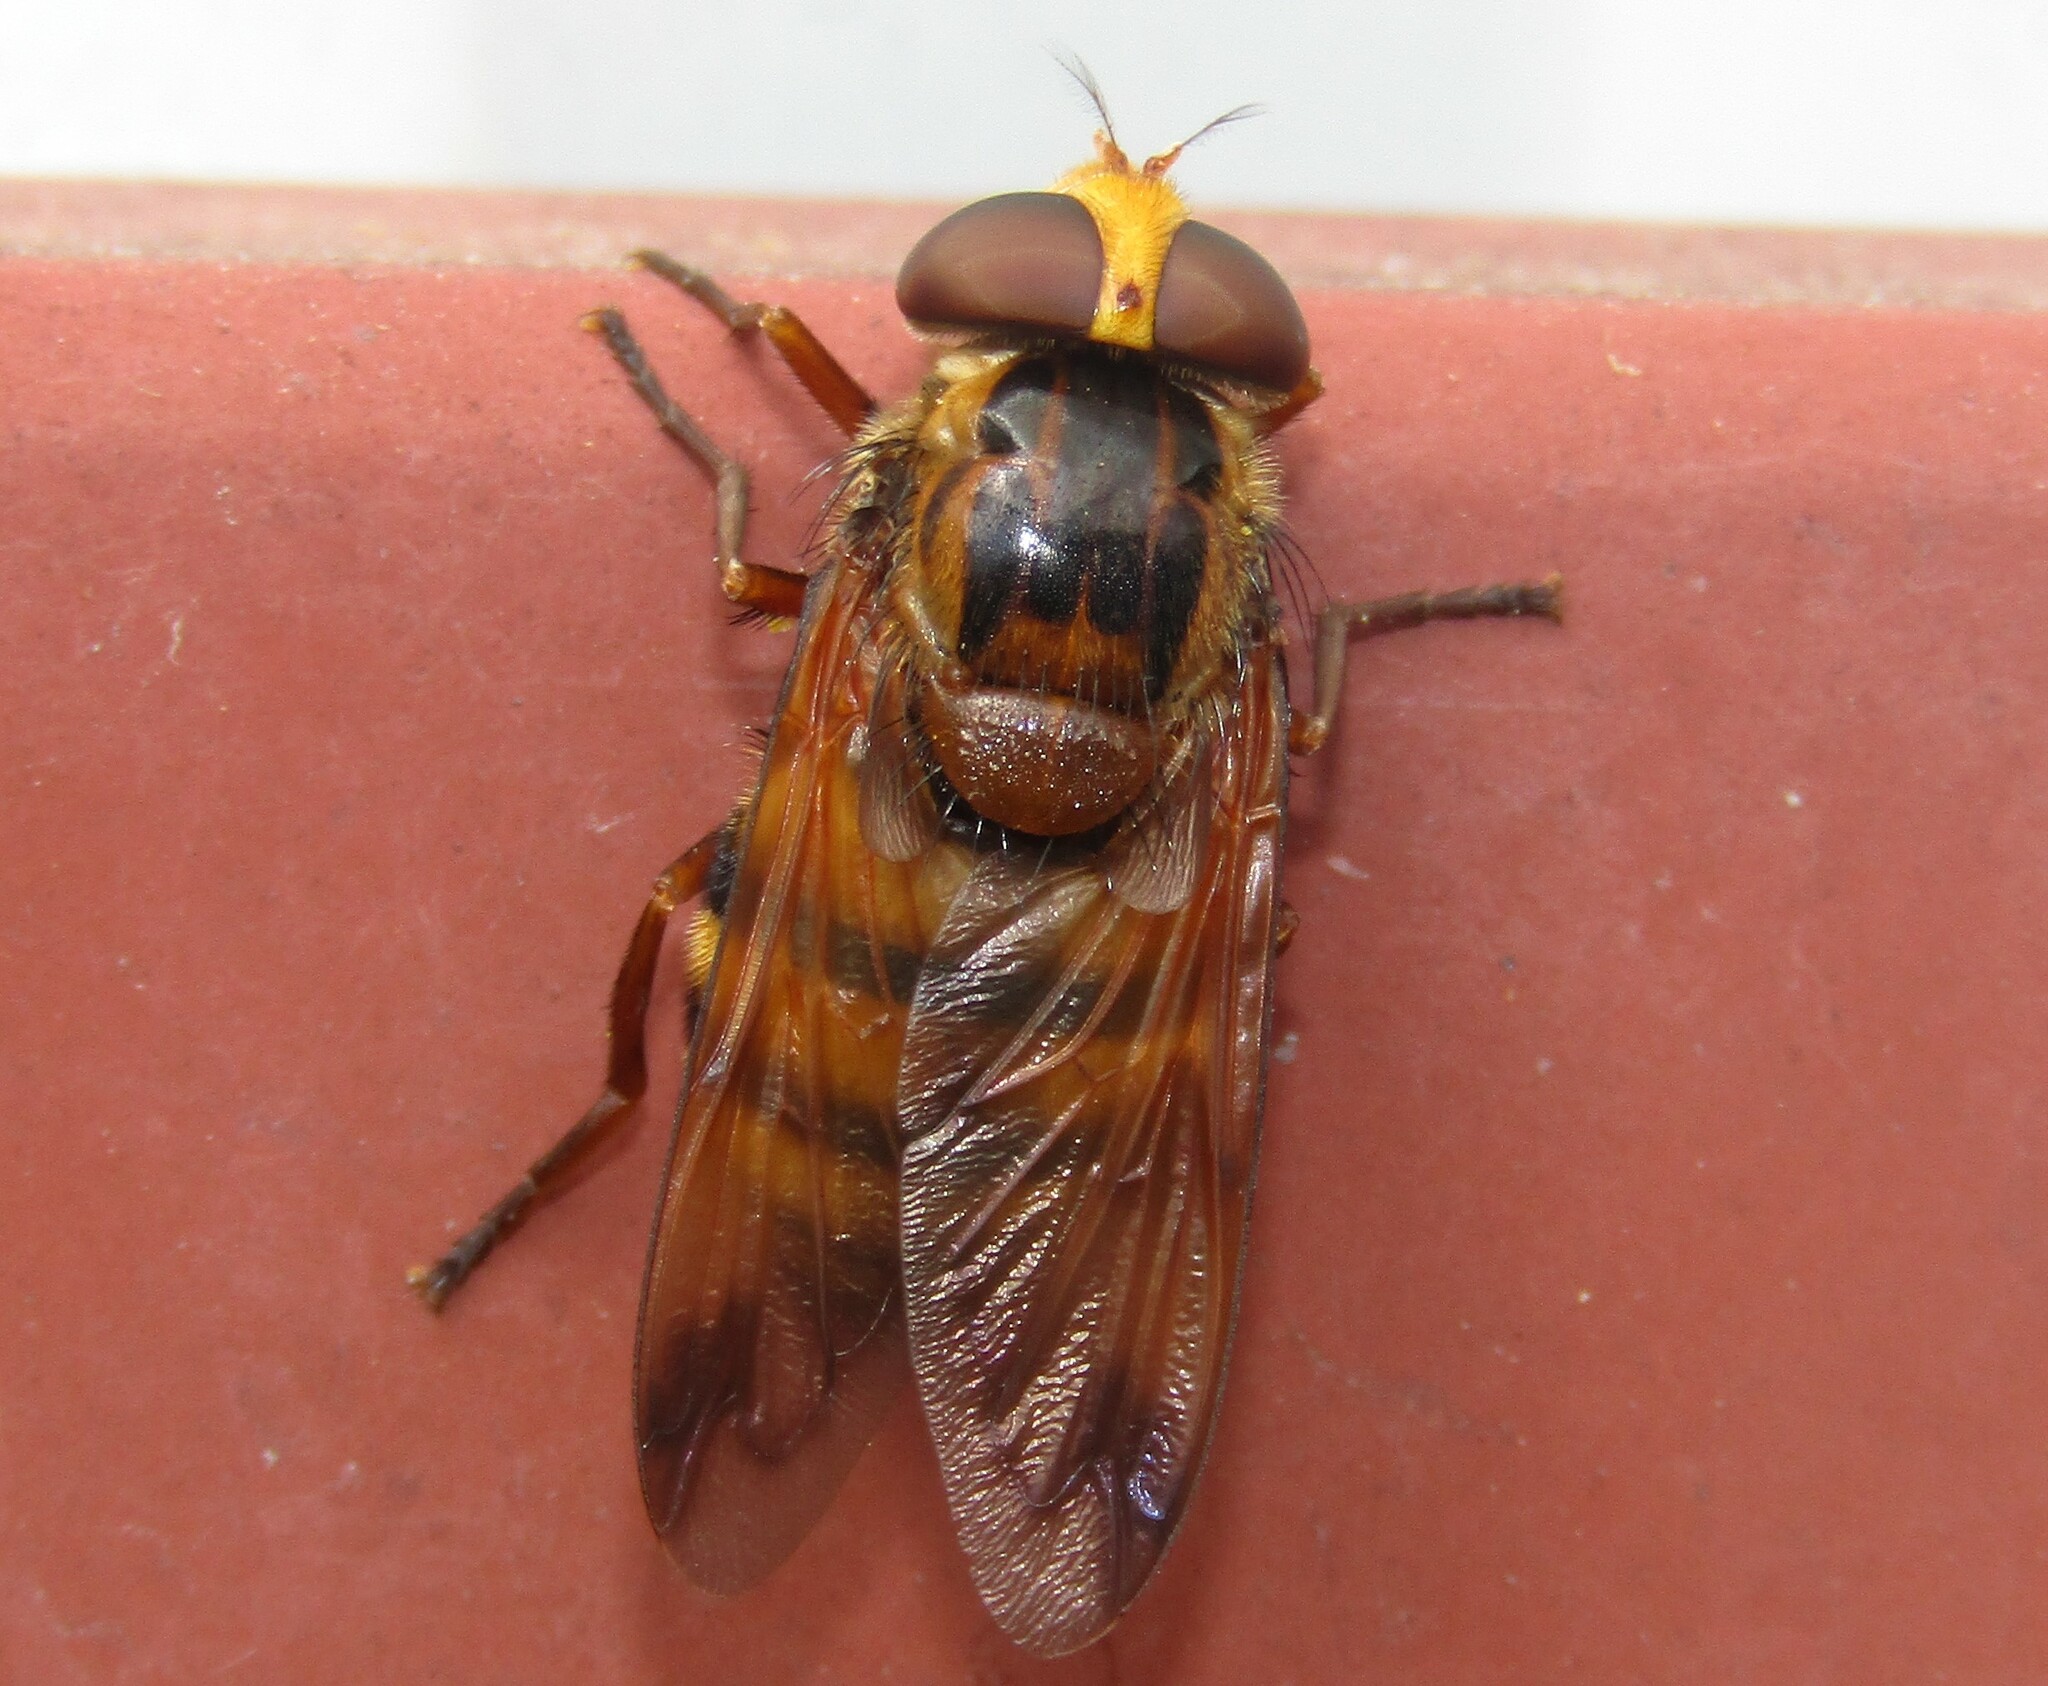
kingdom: Animalia
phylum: Arthropoda
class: Insecta
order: Diptera
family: Syrphidae
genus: Volucella
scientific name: Volucella inanis
